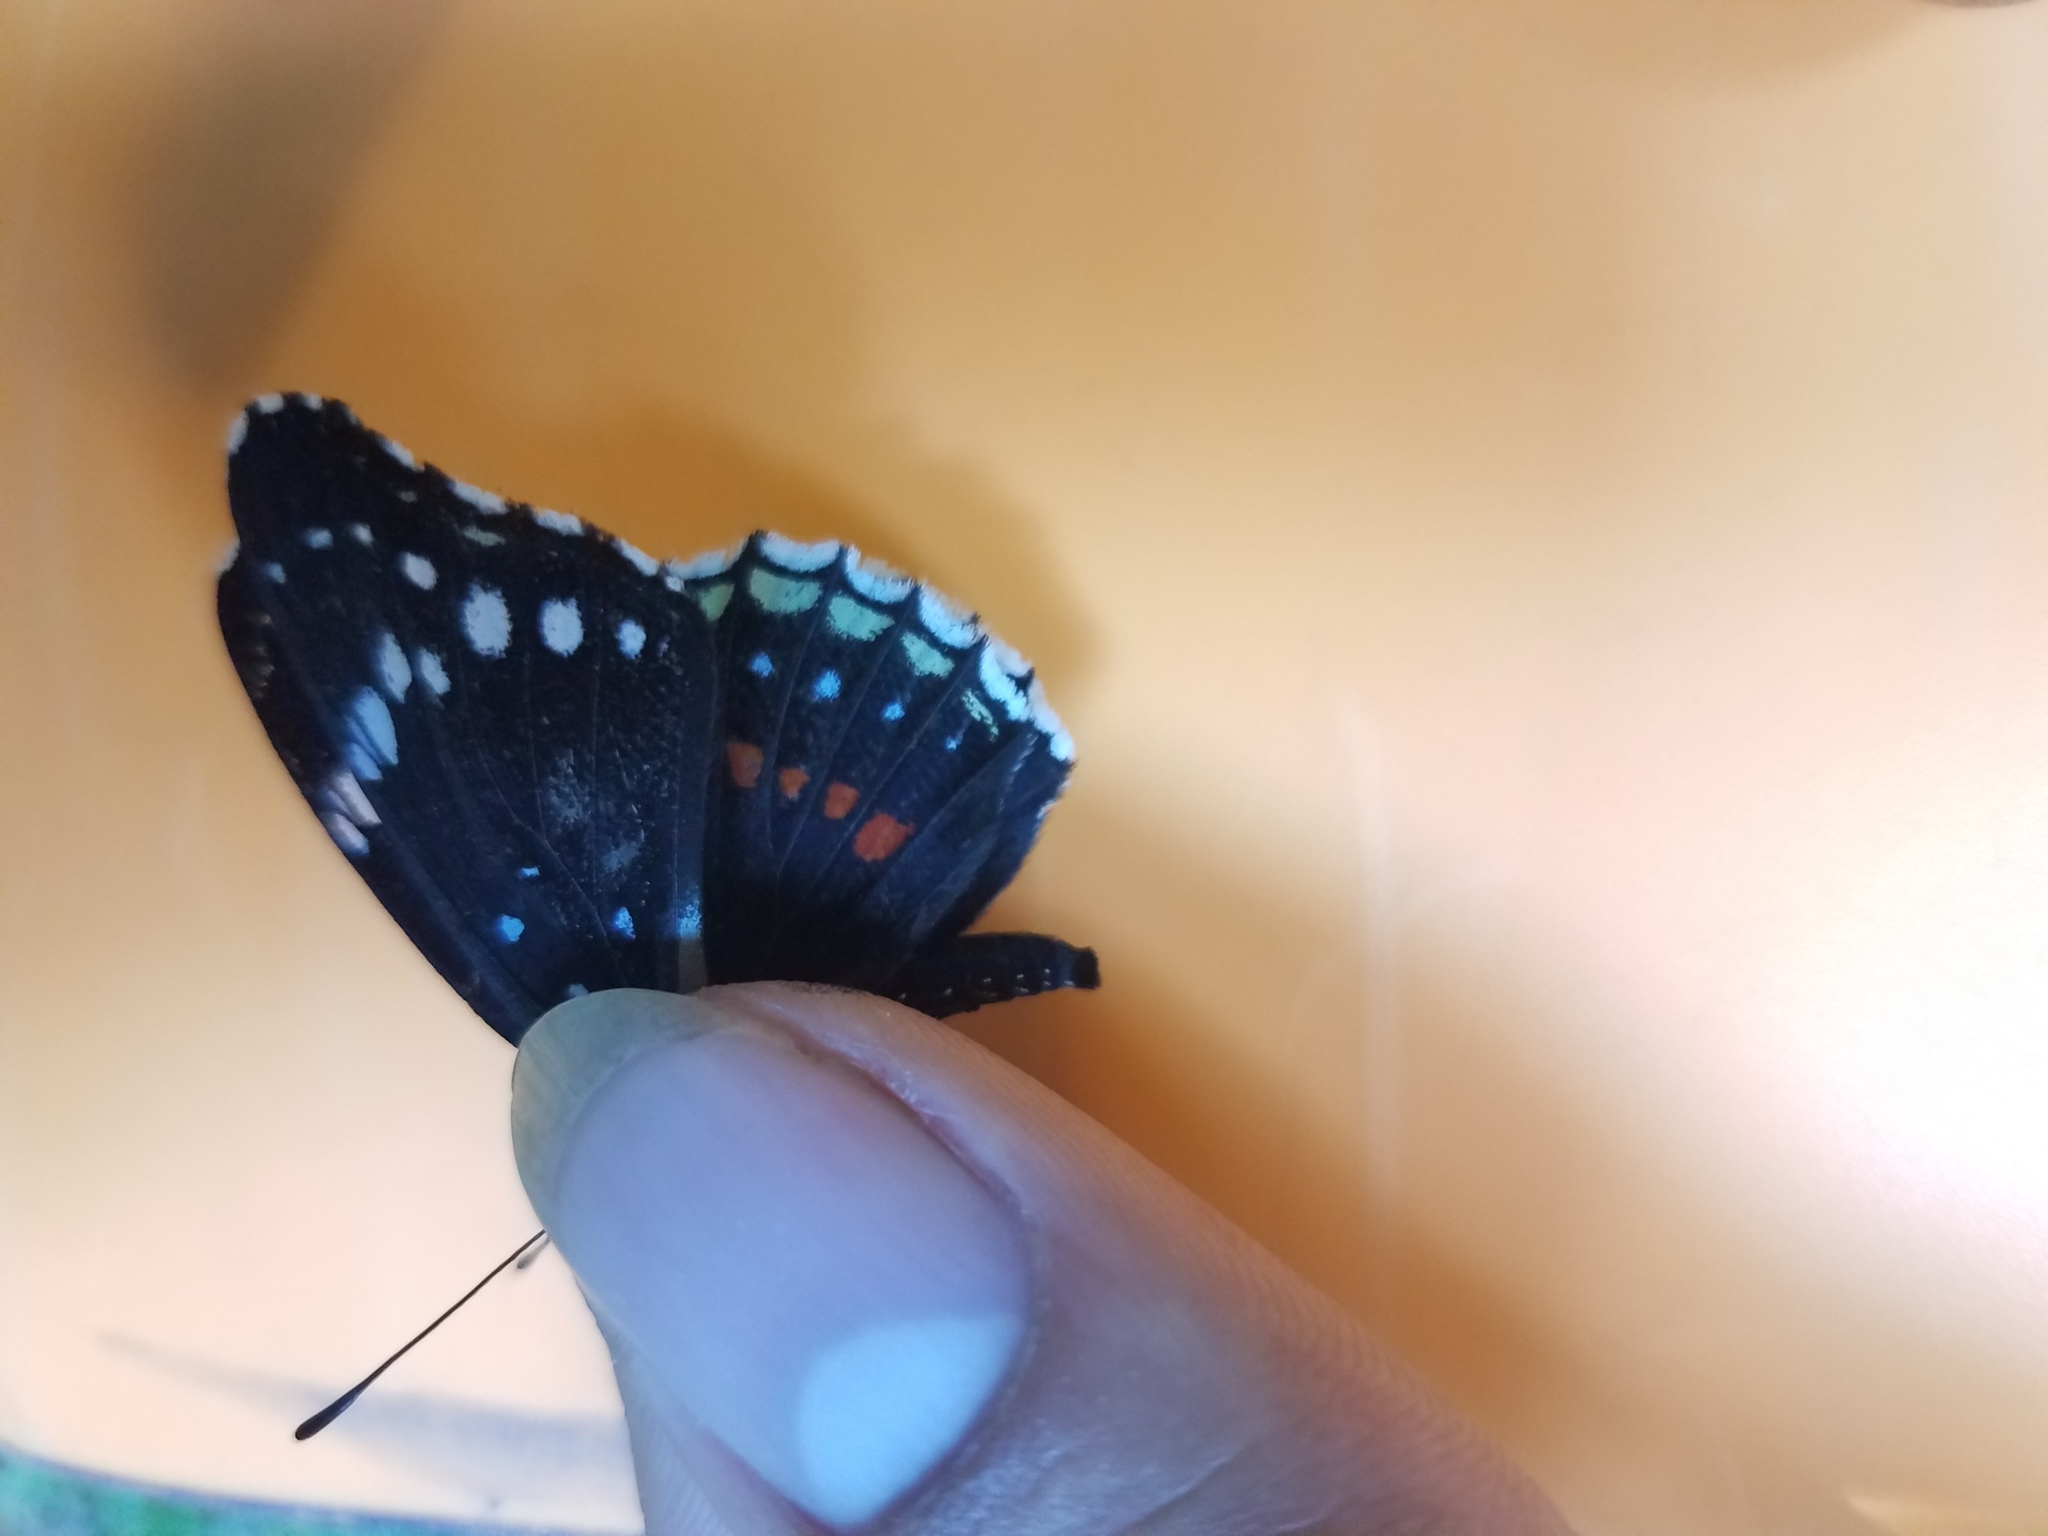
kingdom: Animalia
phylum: Arthropoda
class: Insecta
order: Lepidoptera
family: Nymphalidae
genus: Chlosyne
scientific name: Chlosyne hippodrome
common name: Simple patch
